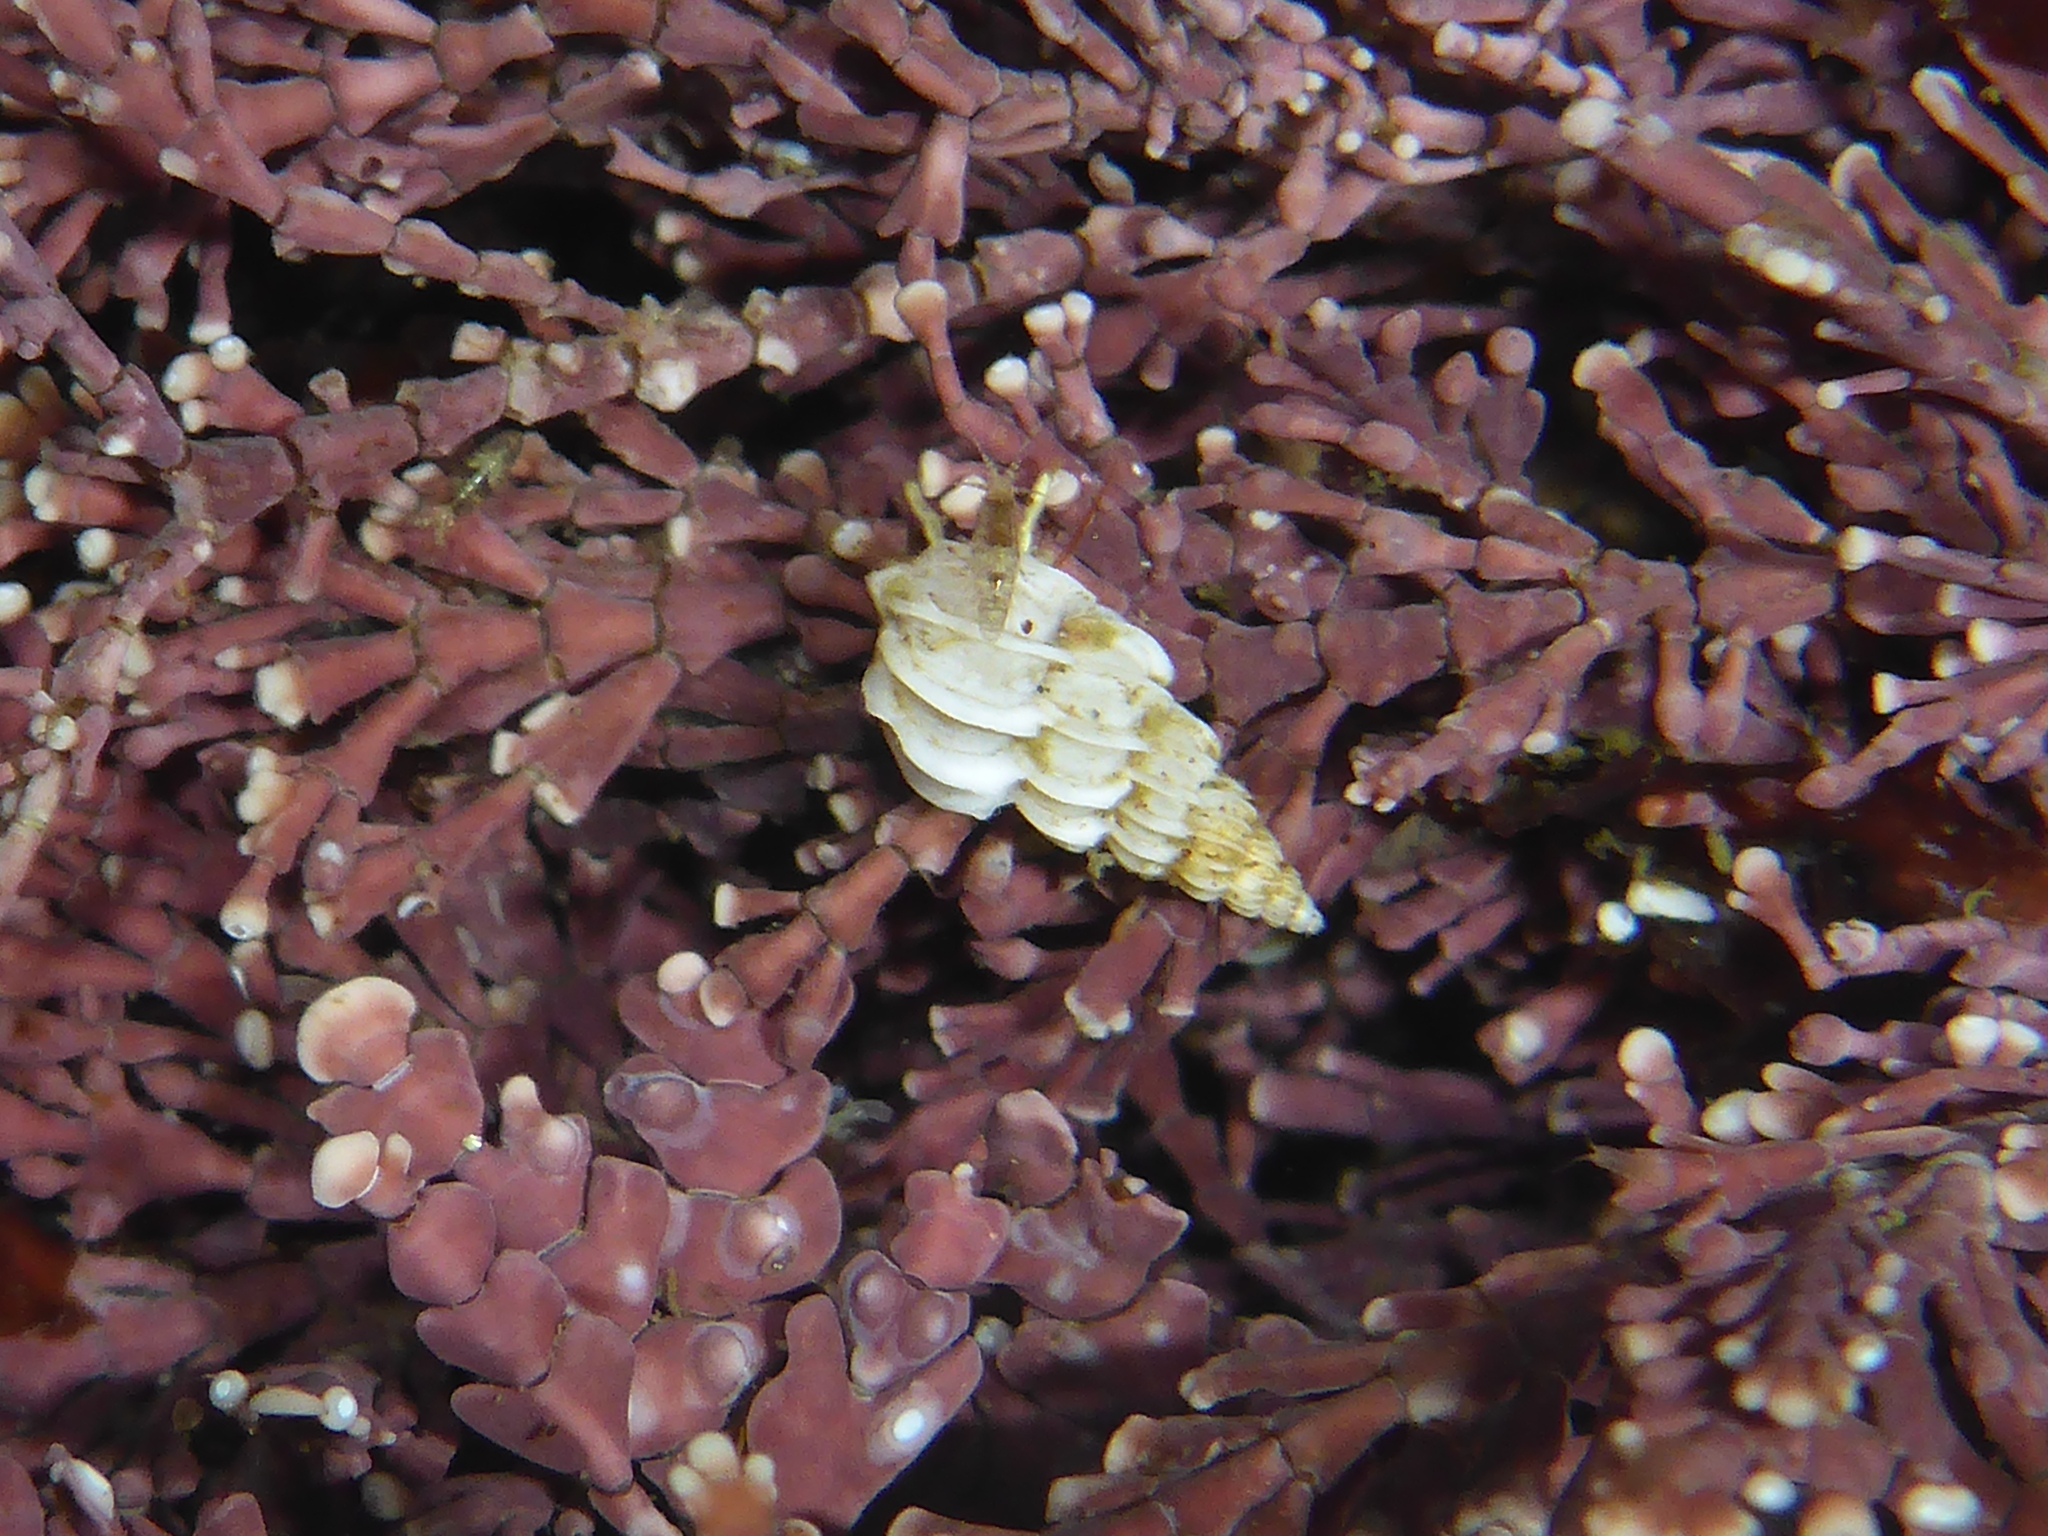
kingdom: Animalia
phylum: Mollusca
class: Gastropoda
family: Epitoniidae
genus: Epitonium
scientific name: Epitonium tinctum
